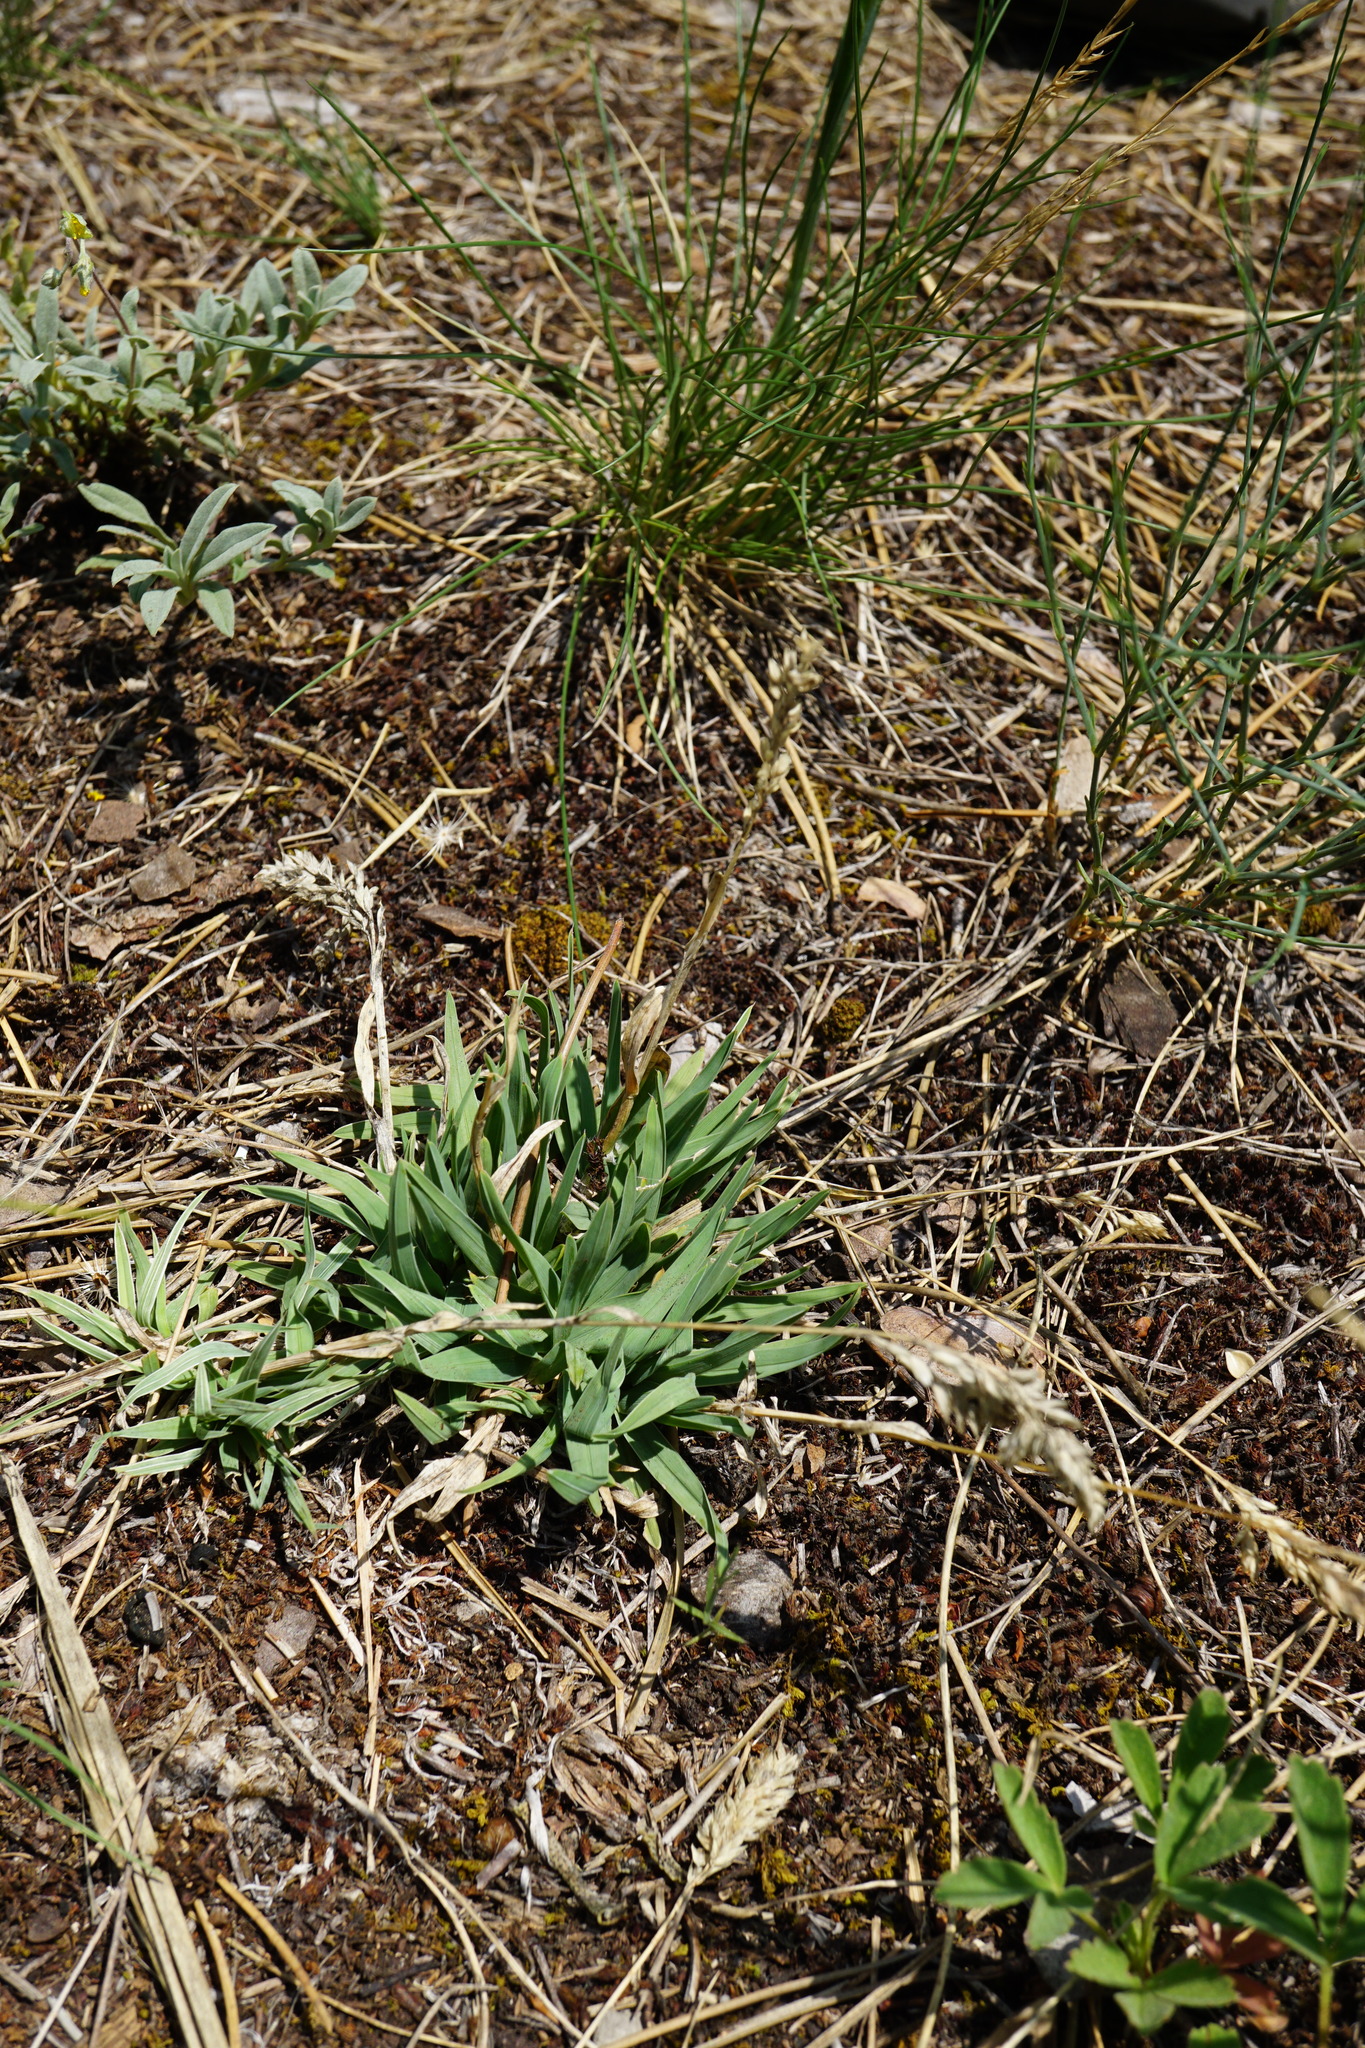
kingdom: Plantae
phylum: Tracheophyta
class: Liliopsida
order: Poales
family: Poaceae
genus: Poa
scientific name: Poa badensis
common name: Baden's bluegrass
